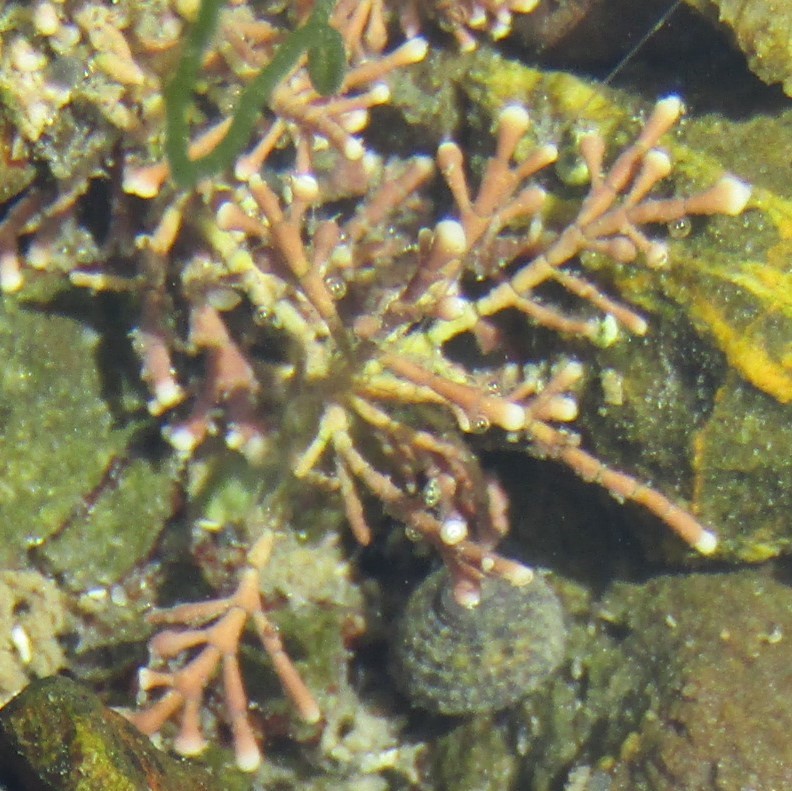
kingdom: Plantae
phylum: Rhodophyta
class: Florideophyceae
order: Corallinales
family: Corallinaceae
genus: Corallina
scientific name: Corallina officinalis
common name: Coral weed
